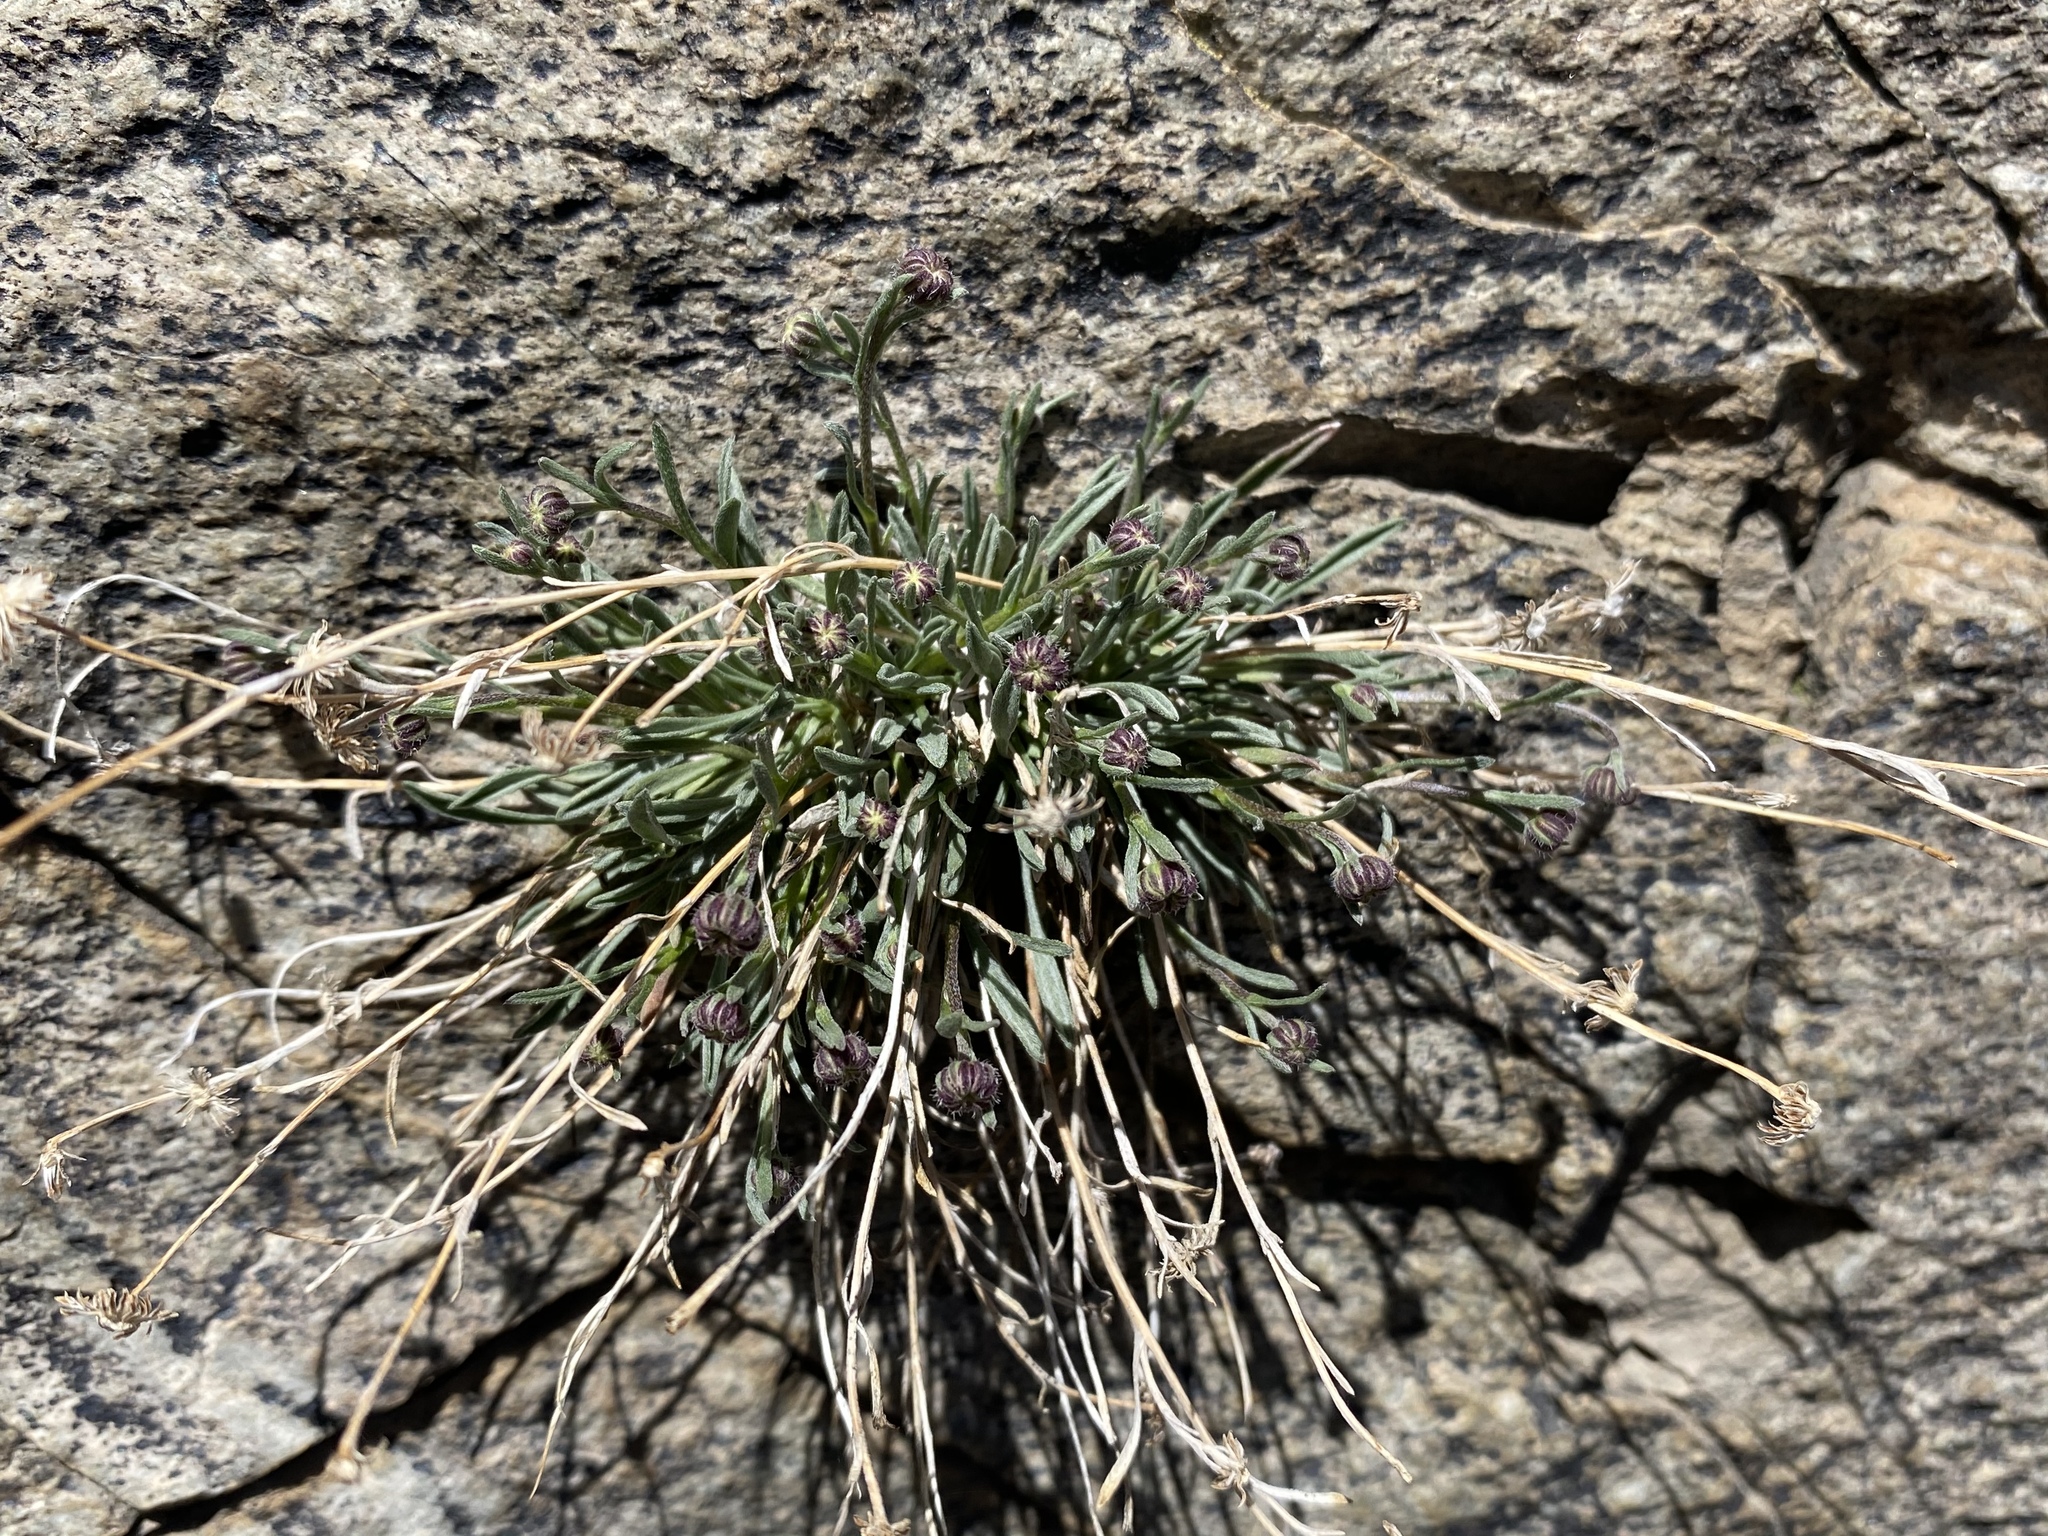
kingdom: Plantae
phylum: Tracheophyta
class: Magnoliopsida
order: Asterales
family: Asteraceae
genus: Erigeron
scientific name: Erigeron tener
